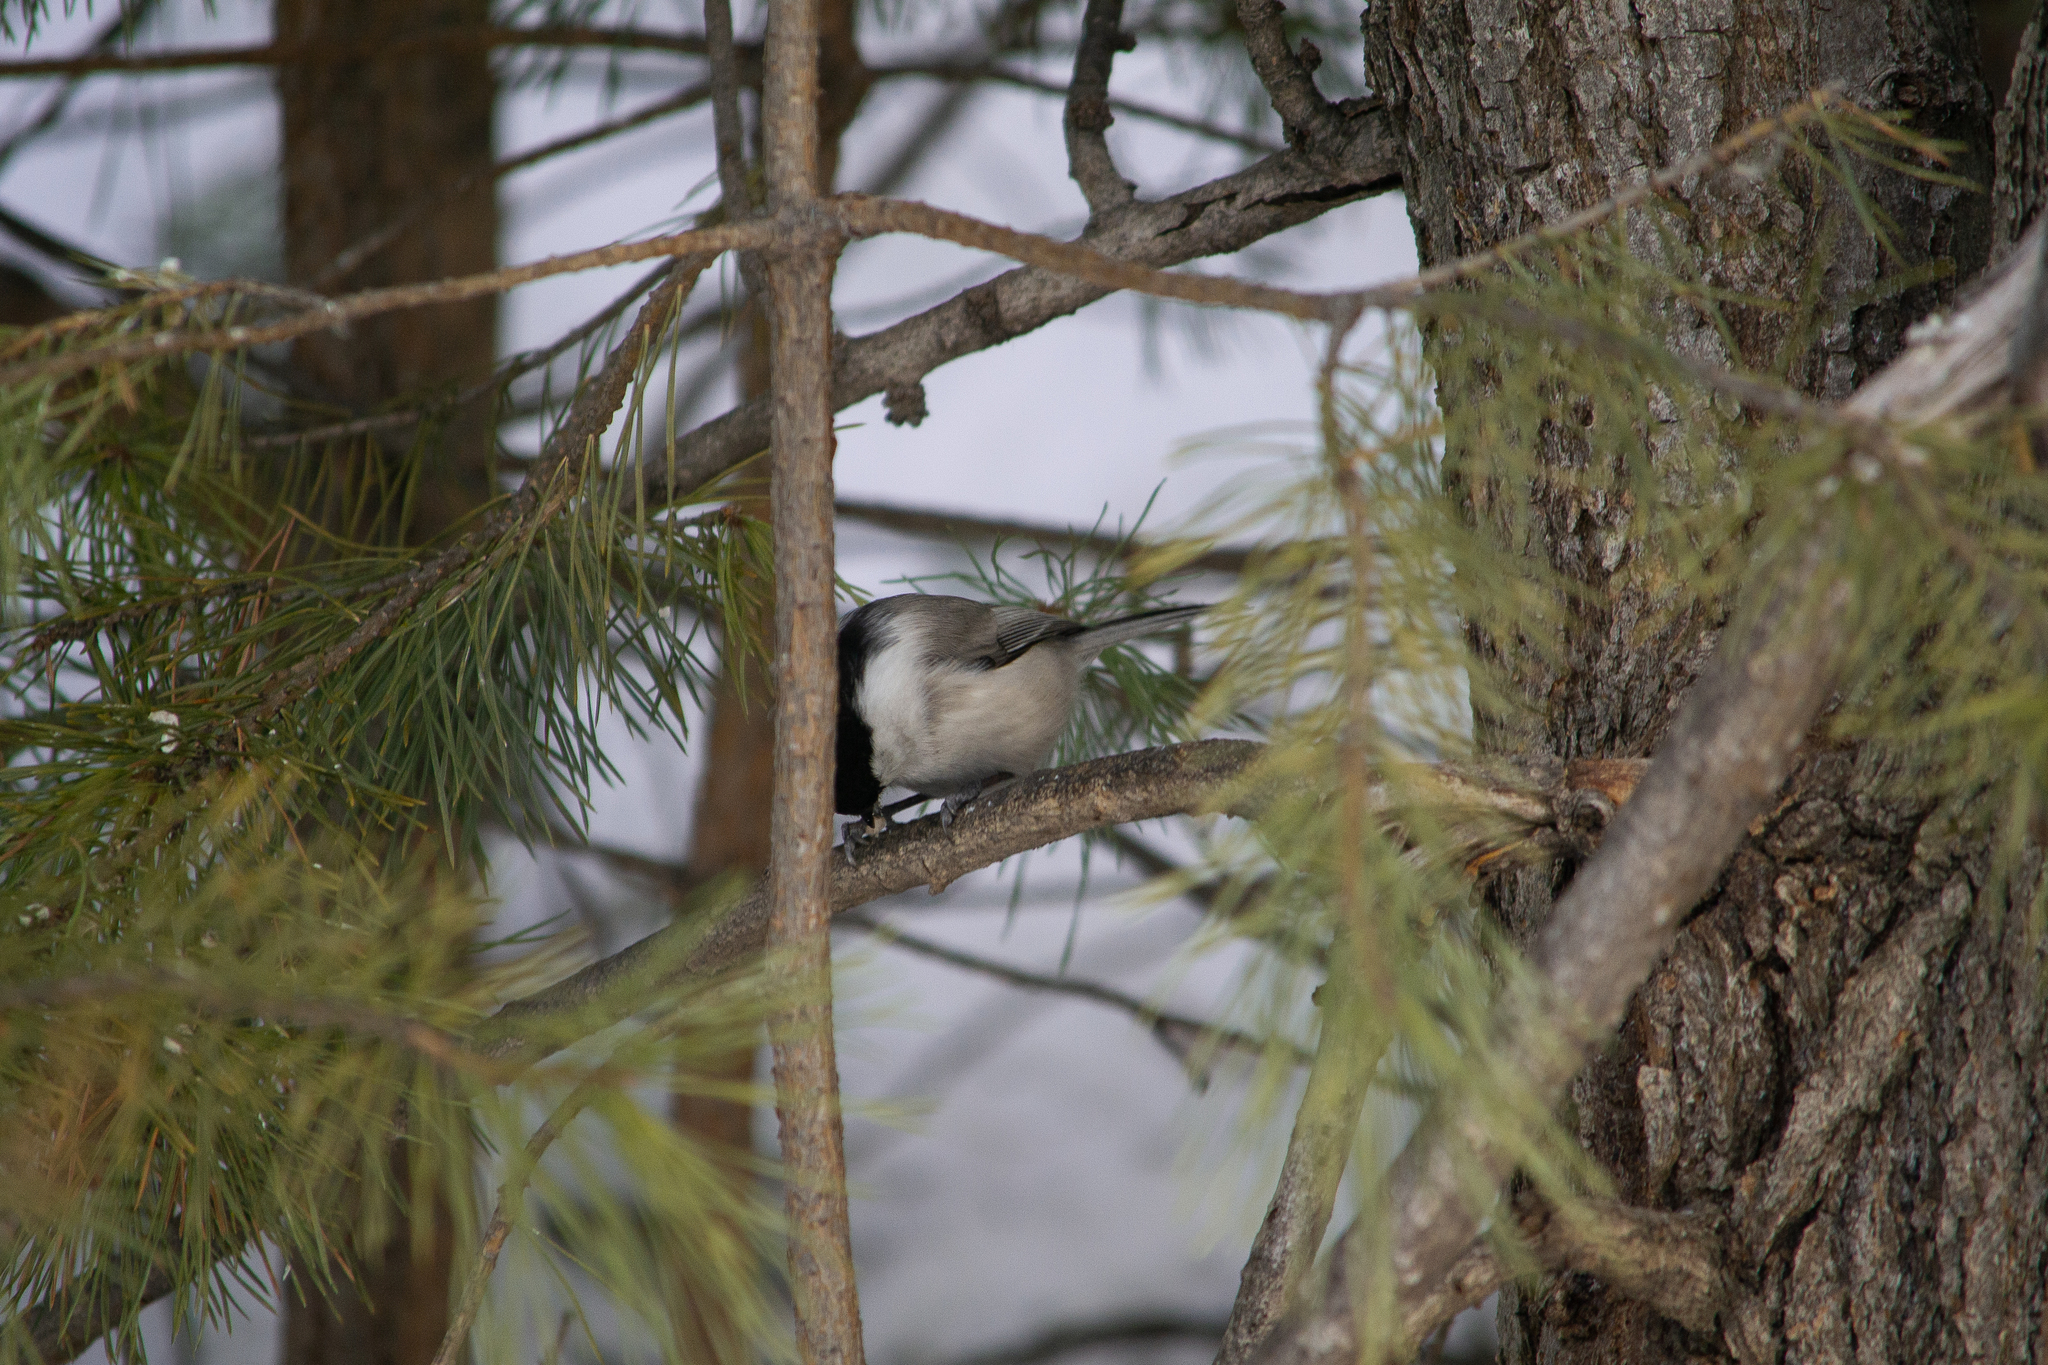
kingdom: Animalia
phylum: Chordata
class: Aves
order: Passeriformes
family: Paridae
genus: Poecile
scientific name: Poecile montanus
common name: Willow tit
